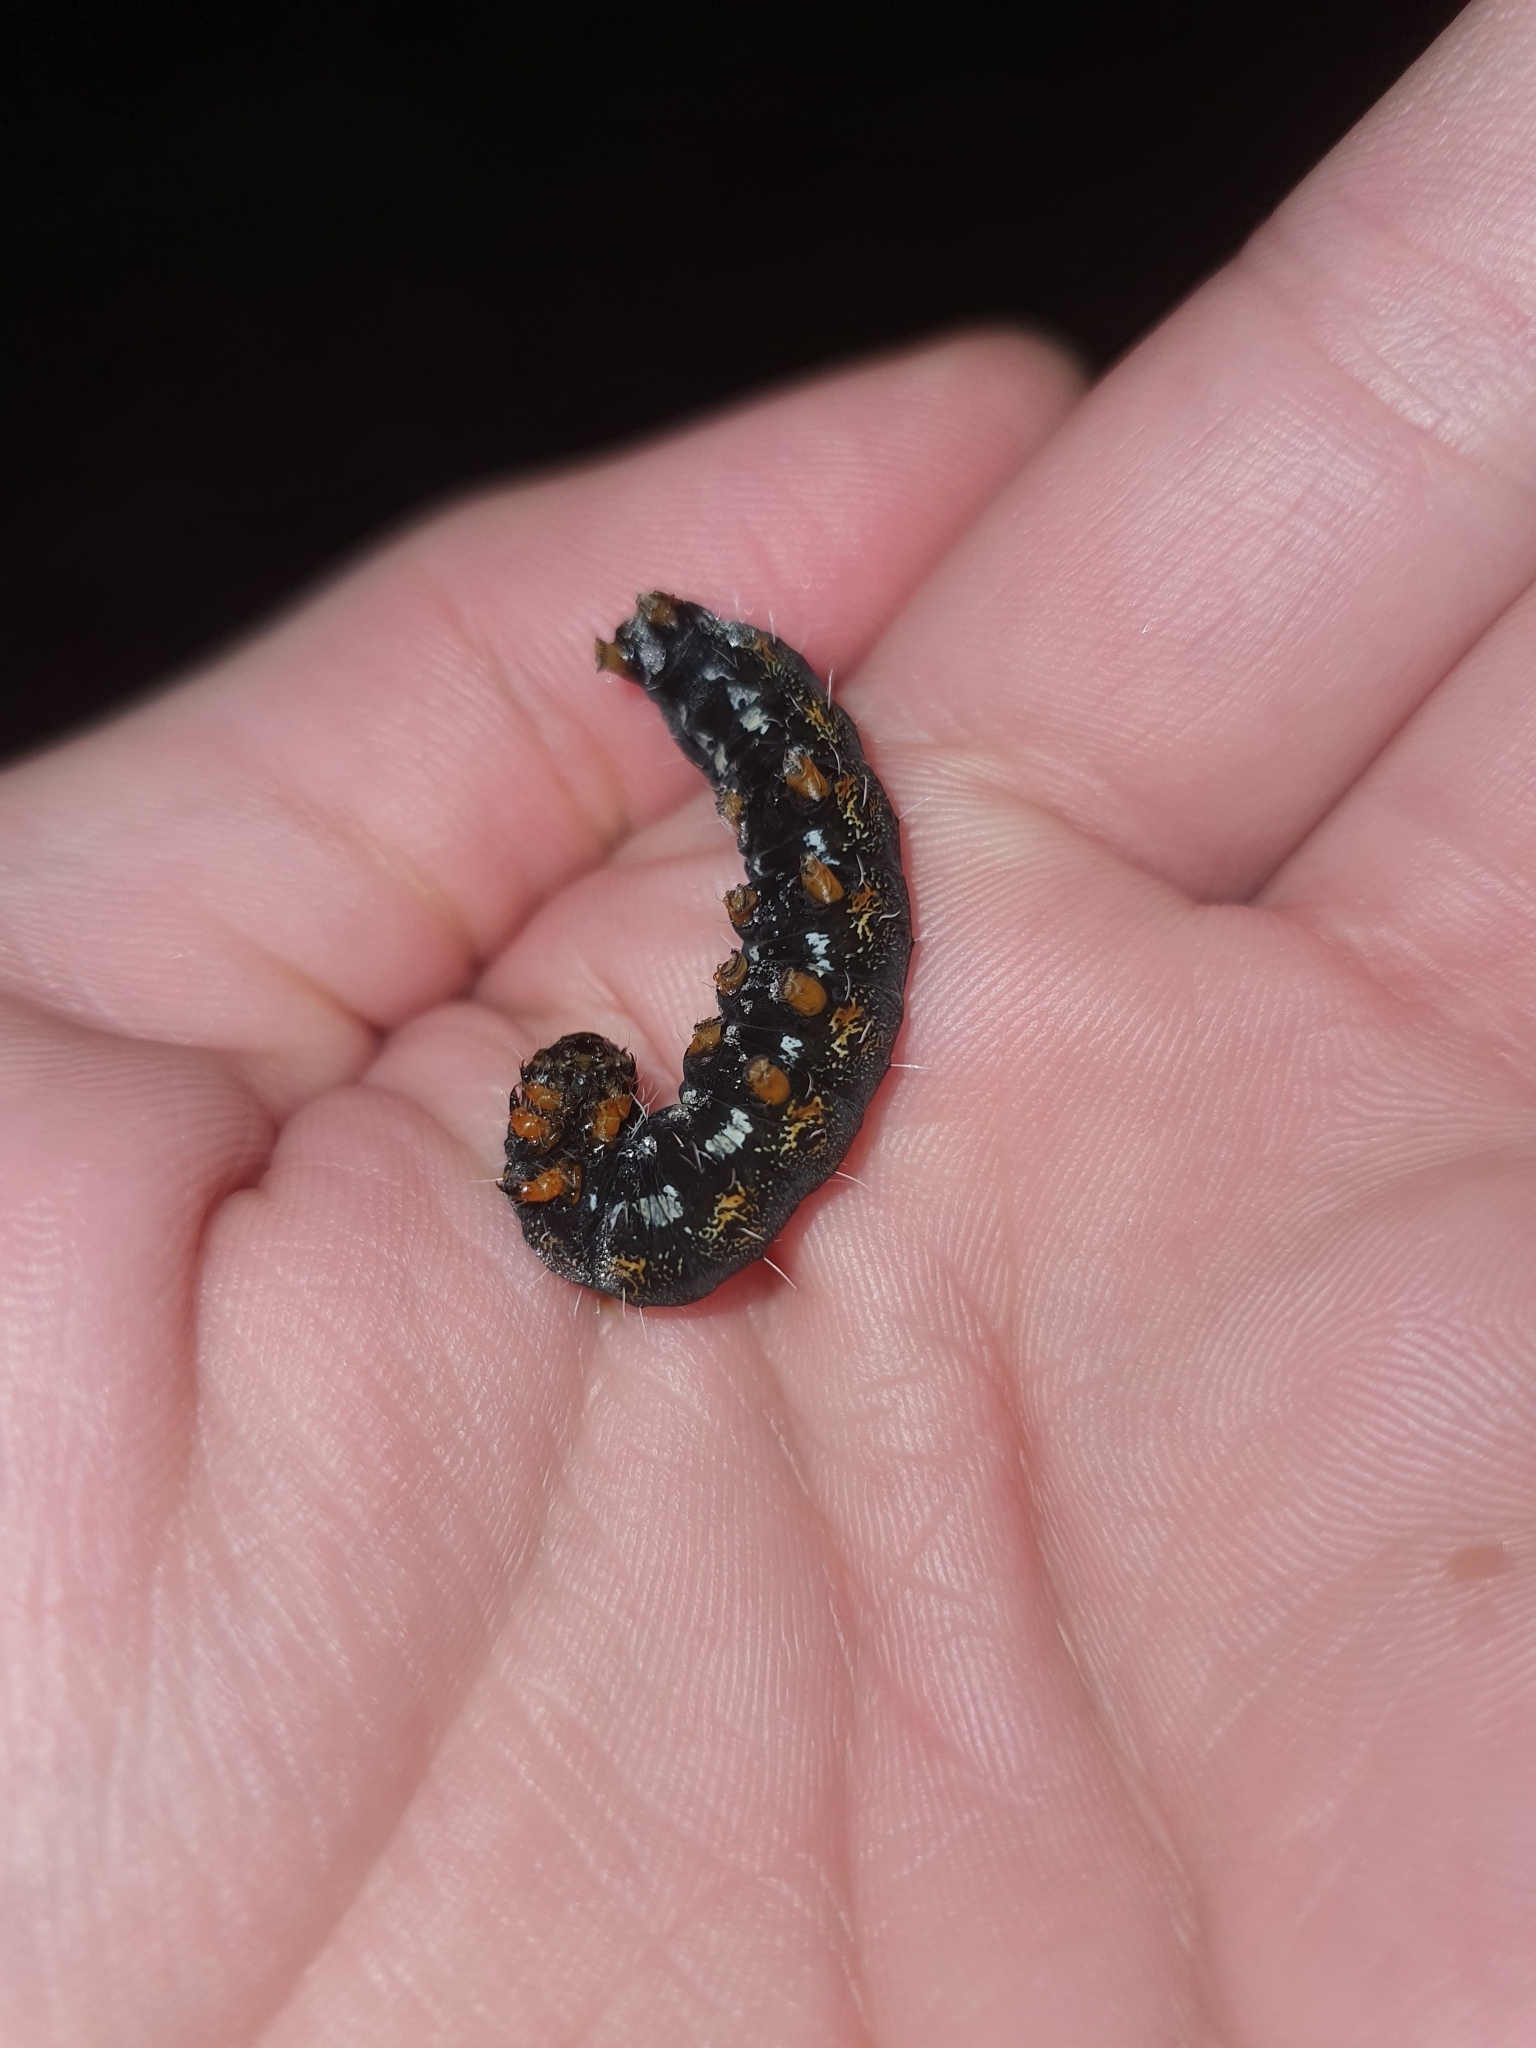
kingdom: Animalia
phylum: Arthropoda
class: Insecta
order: Lepidoptera
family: Noctuidae
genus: Apina
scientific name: Apina callisto
